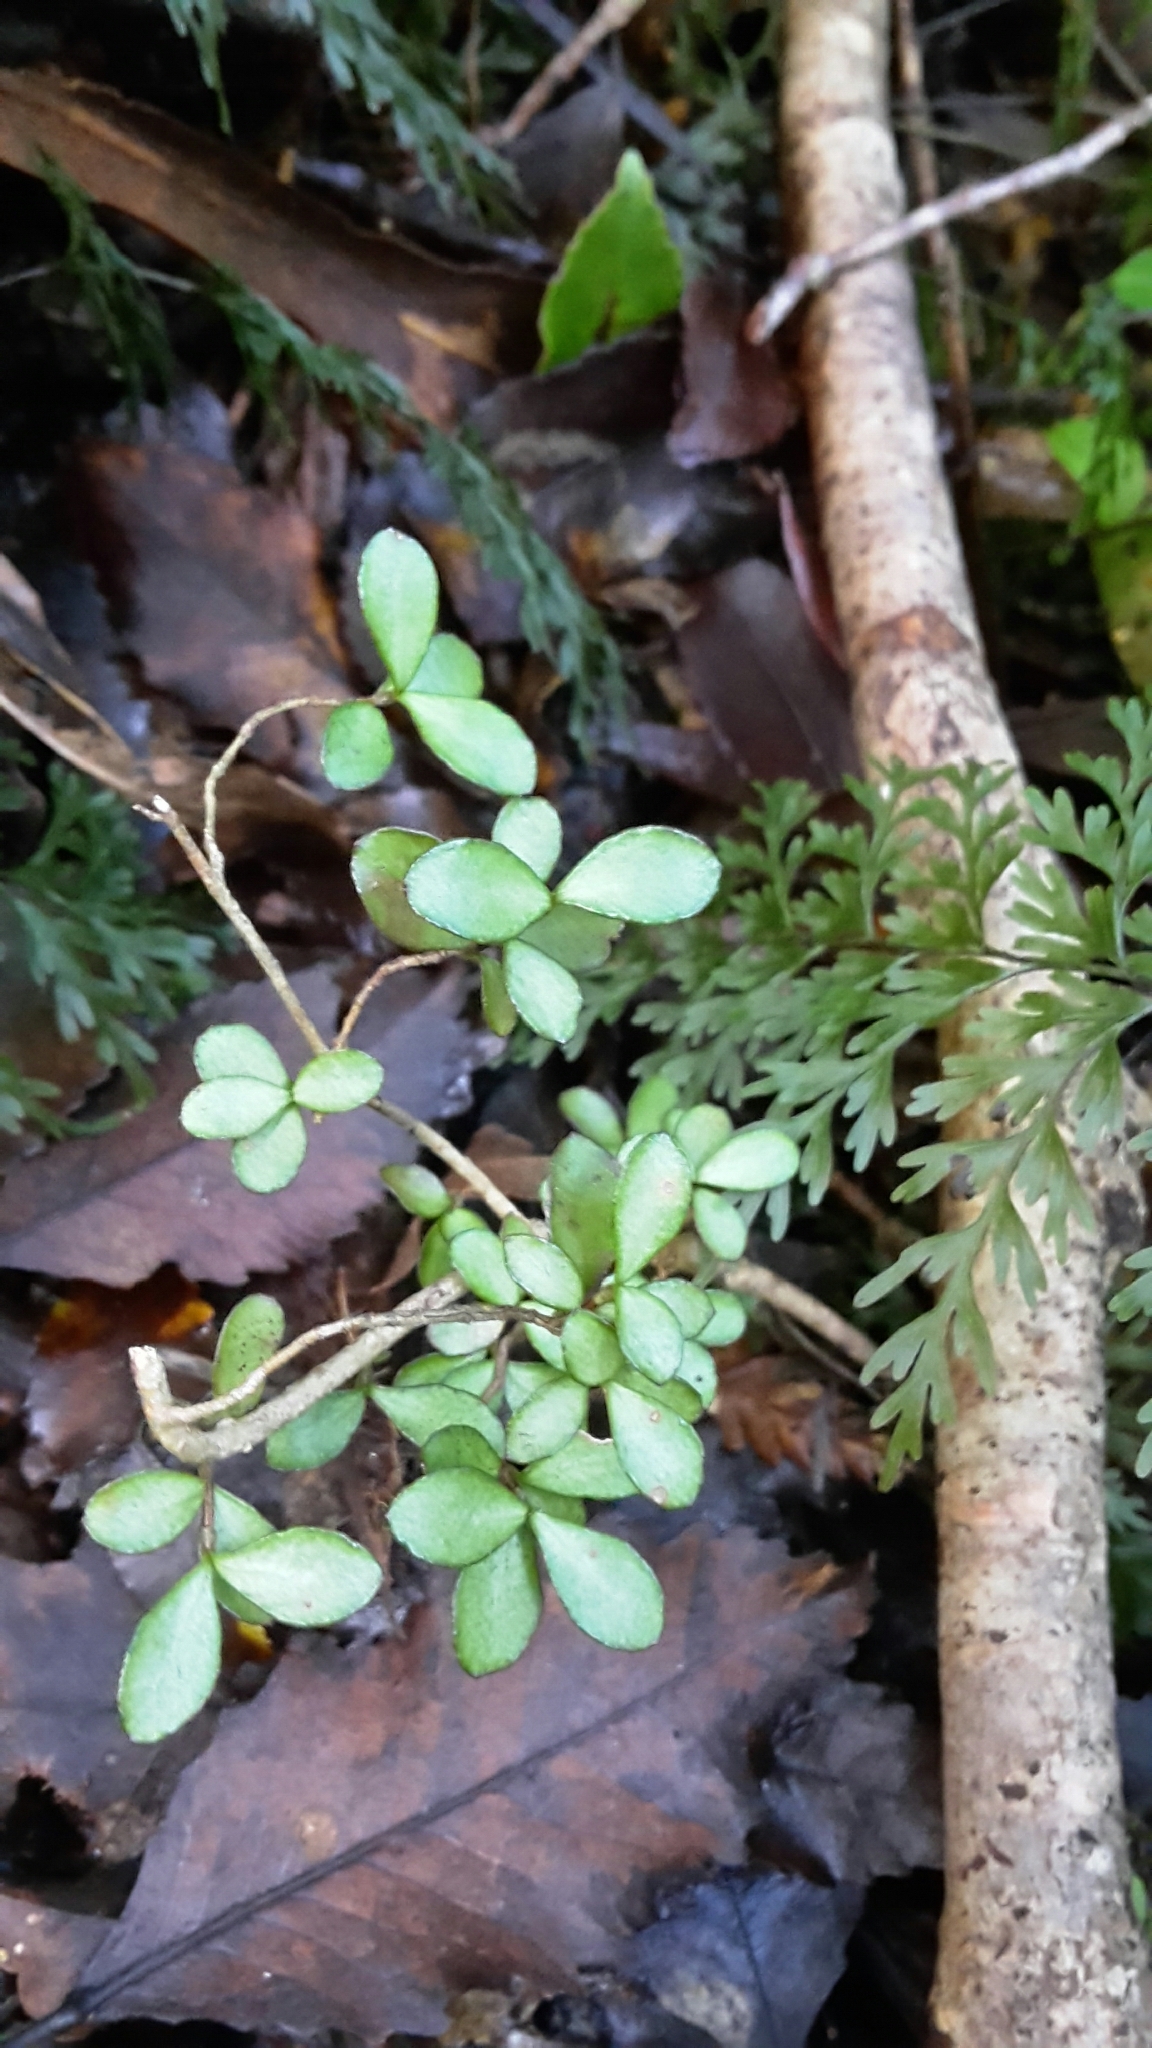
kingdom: Plantae
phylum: Tracheophyta
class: Magnoliopsida
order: Myrtales
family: Myrtaceae
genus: Neomyrtus
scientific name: Neomyrtus pedunculata
